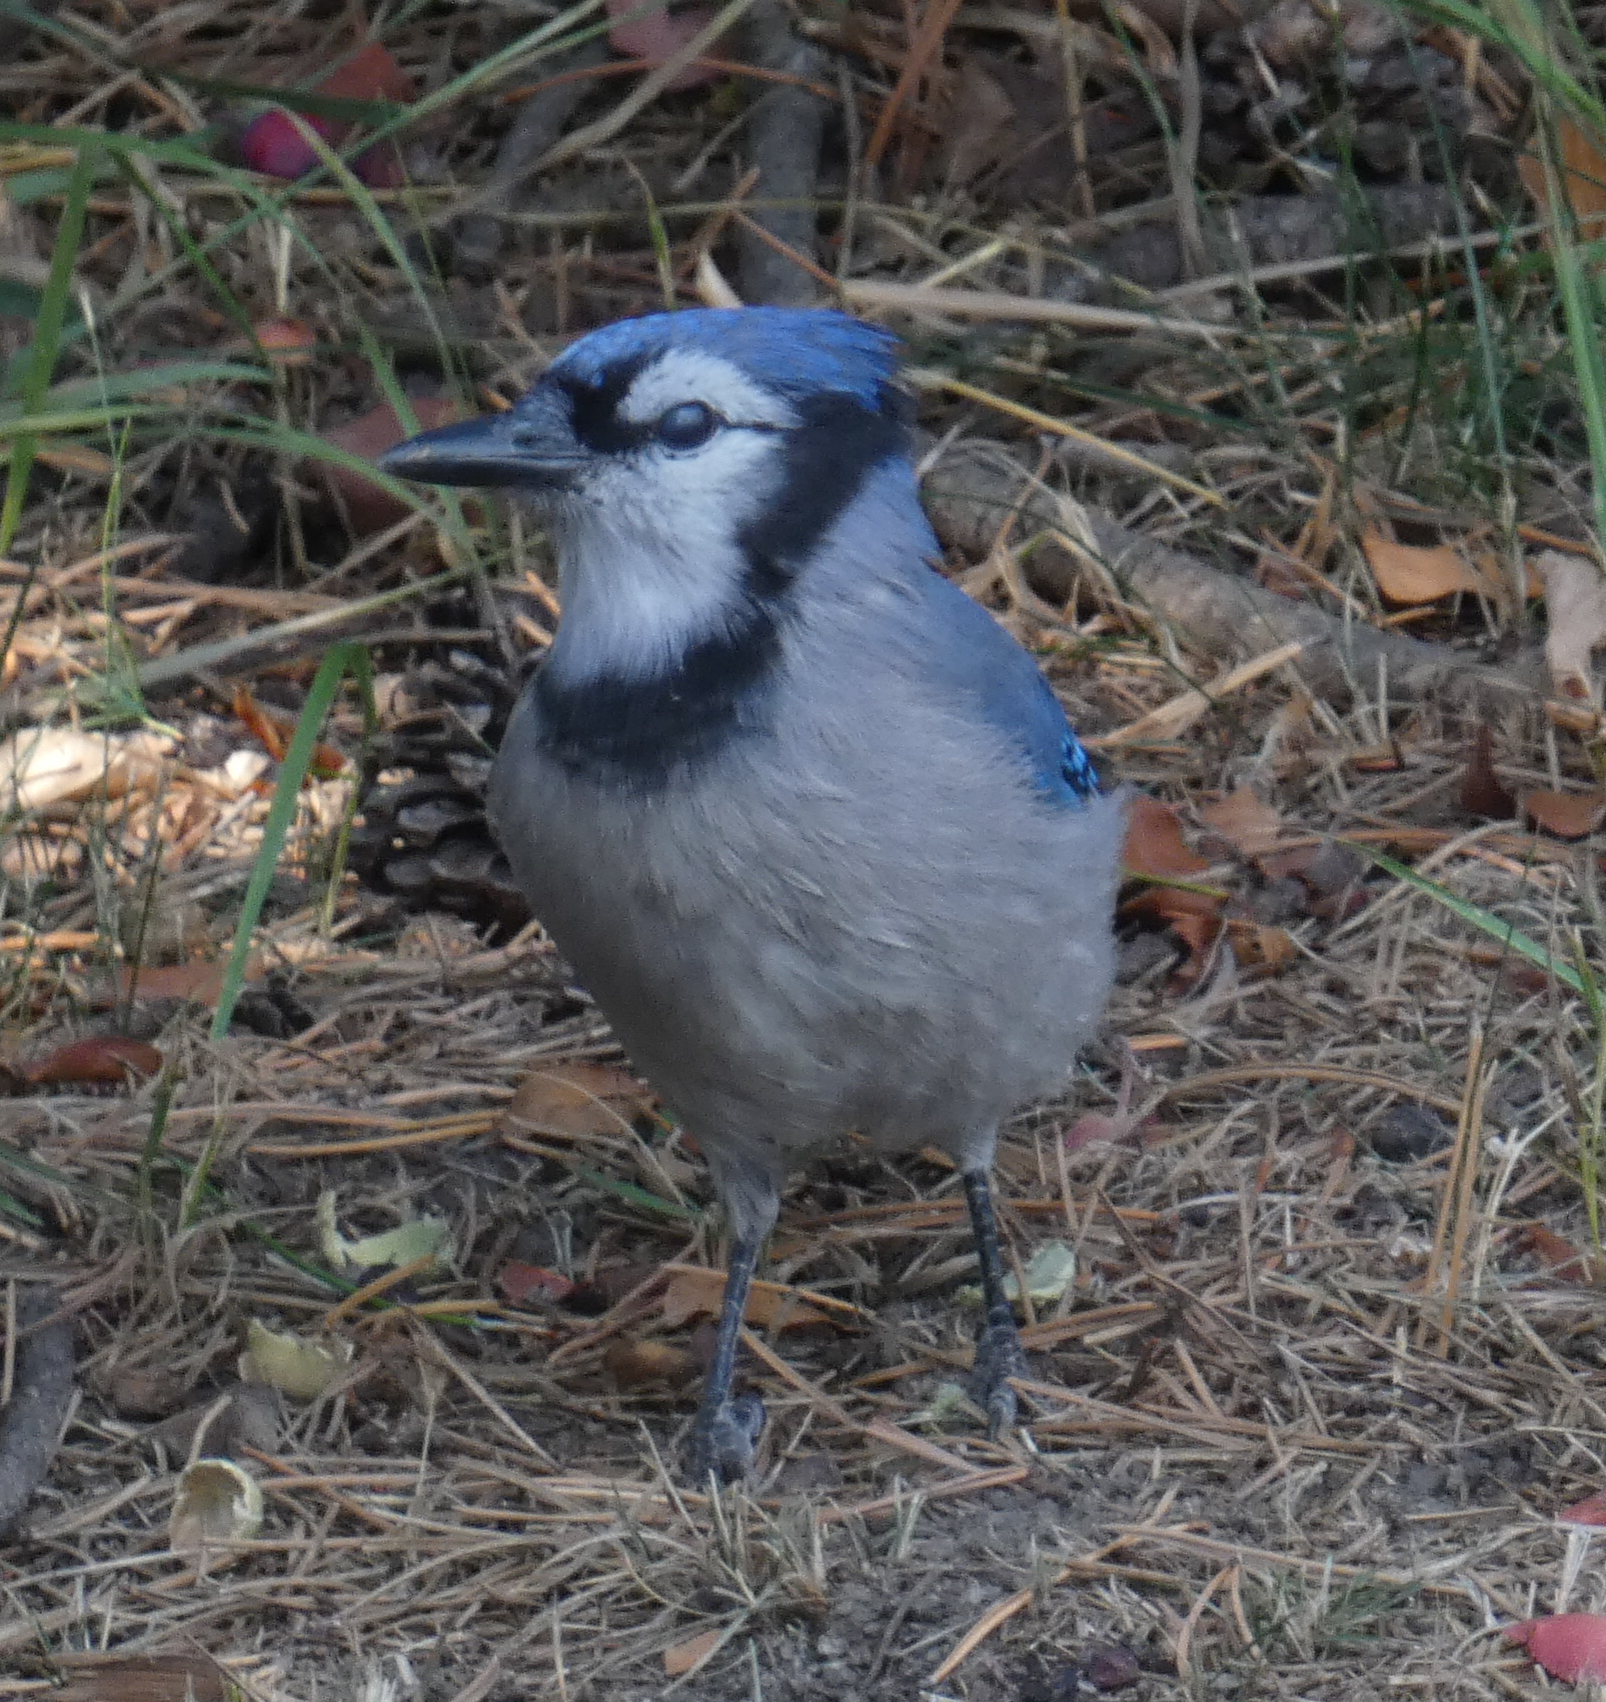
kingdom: Animalia
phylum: Chordata
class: Aves
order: Passeriformes
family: Corvidae
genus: Cyanocitta
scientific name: Cyanocitta cristata
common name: Blue jay
